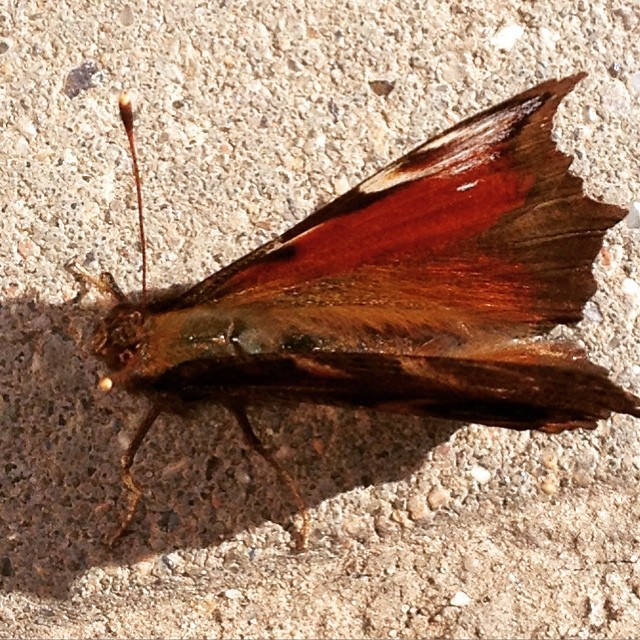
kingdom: Animalia
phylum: Arthropoda
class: Insecta
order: Lepidoptera
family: Nymphalidae
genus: Aglais
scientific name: Aglais io
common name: Peacock
